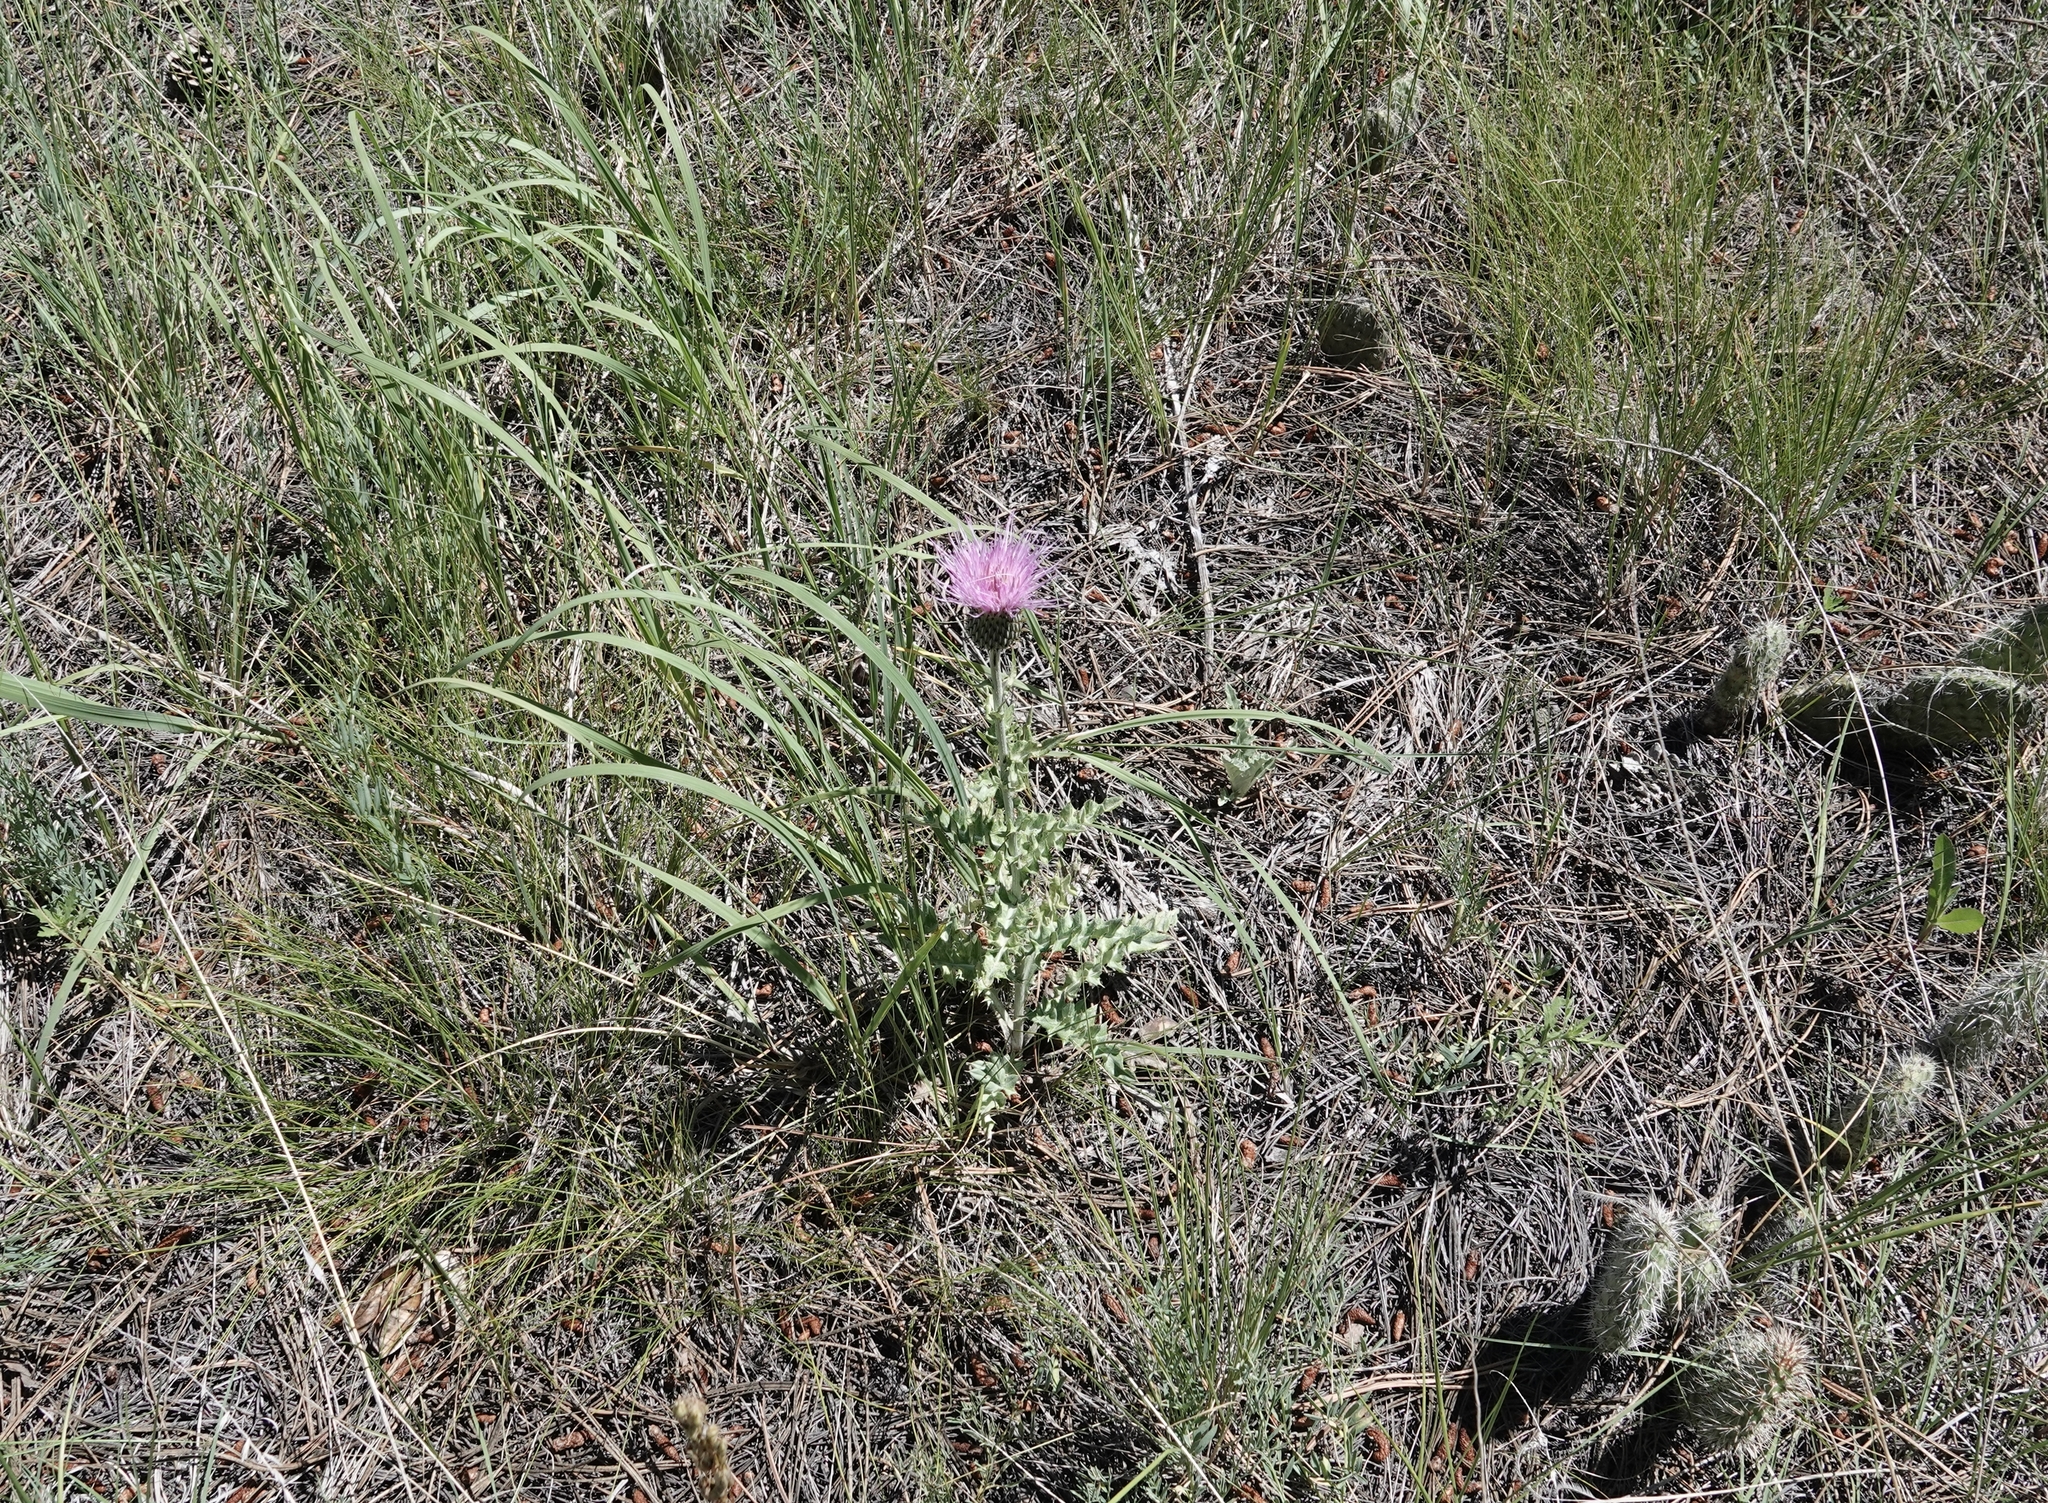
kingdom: Plantae
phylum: Tracheophyta
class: Magnoliopsida
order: Asterales
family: Asteraceae
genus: Cirsium
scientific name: Cirsium undulatum
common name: Pasture thistle
